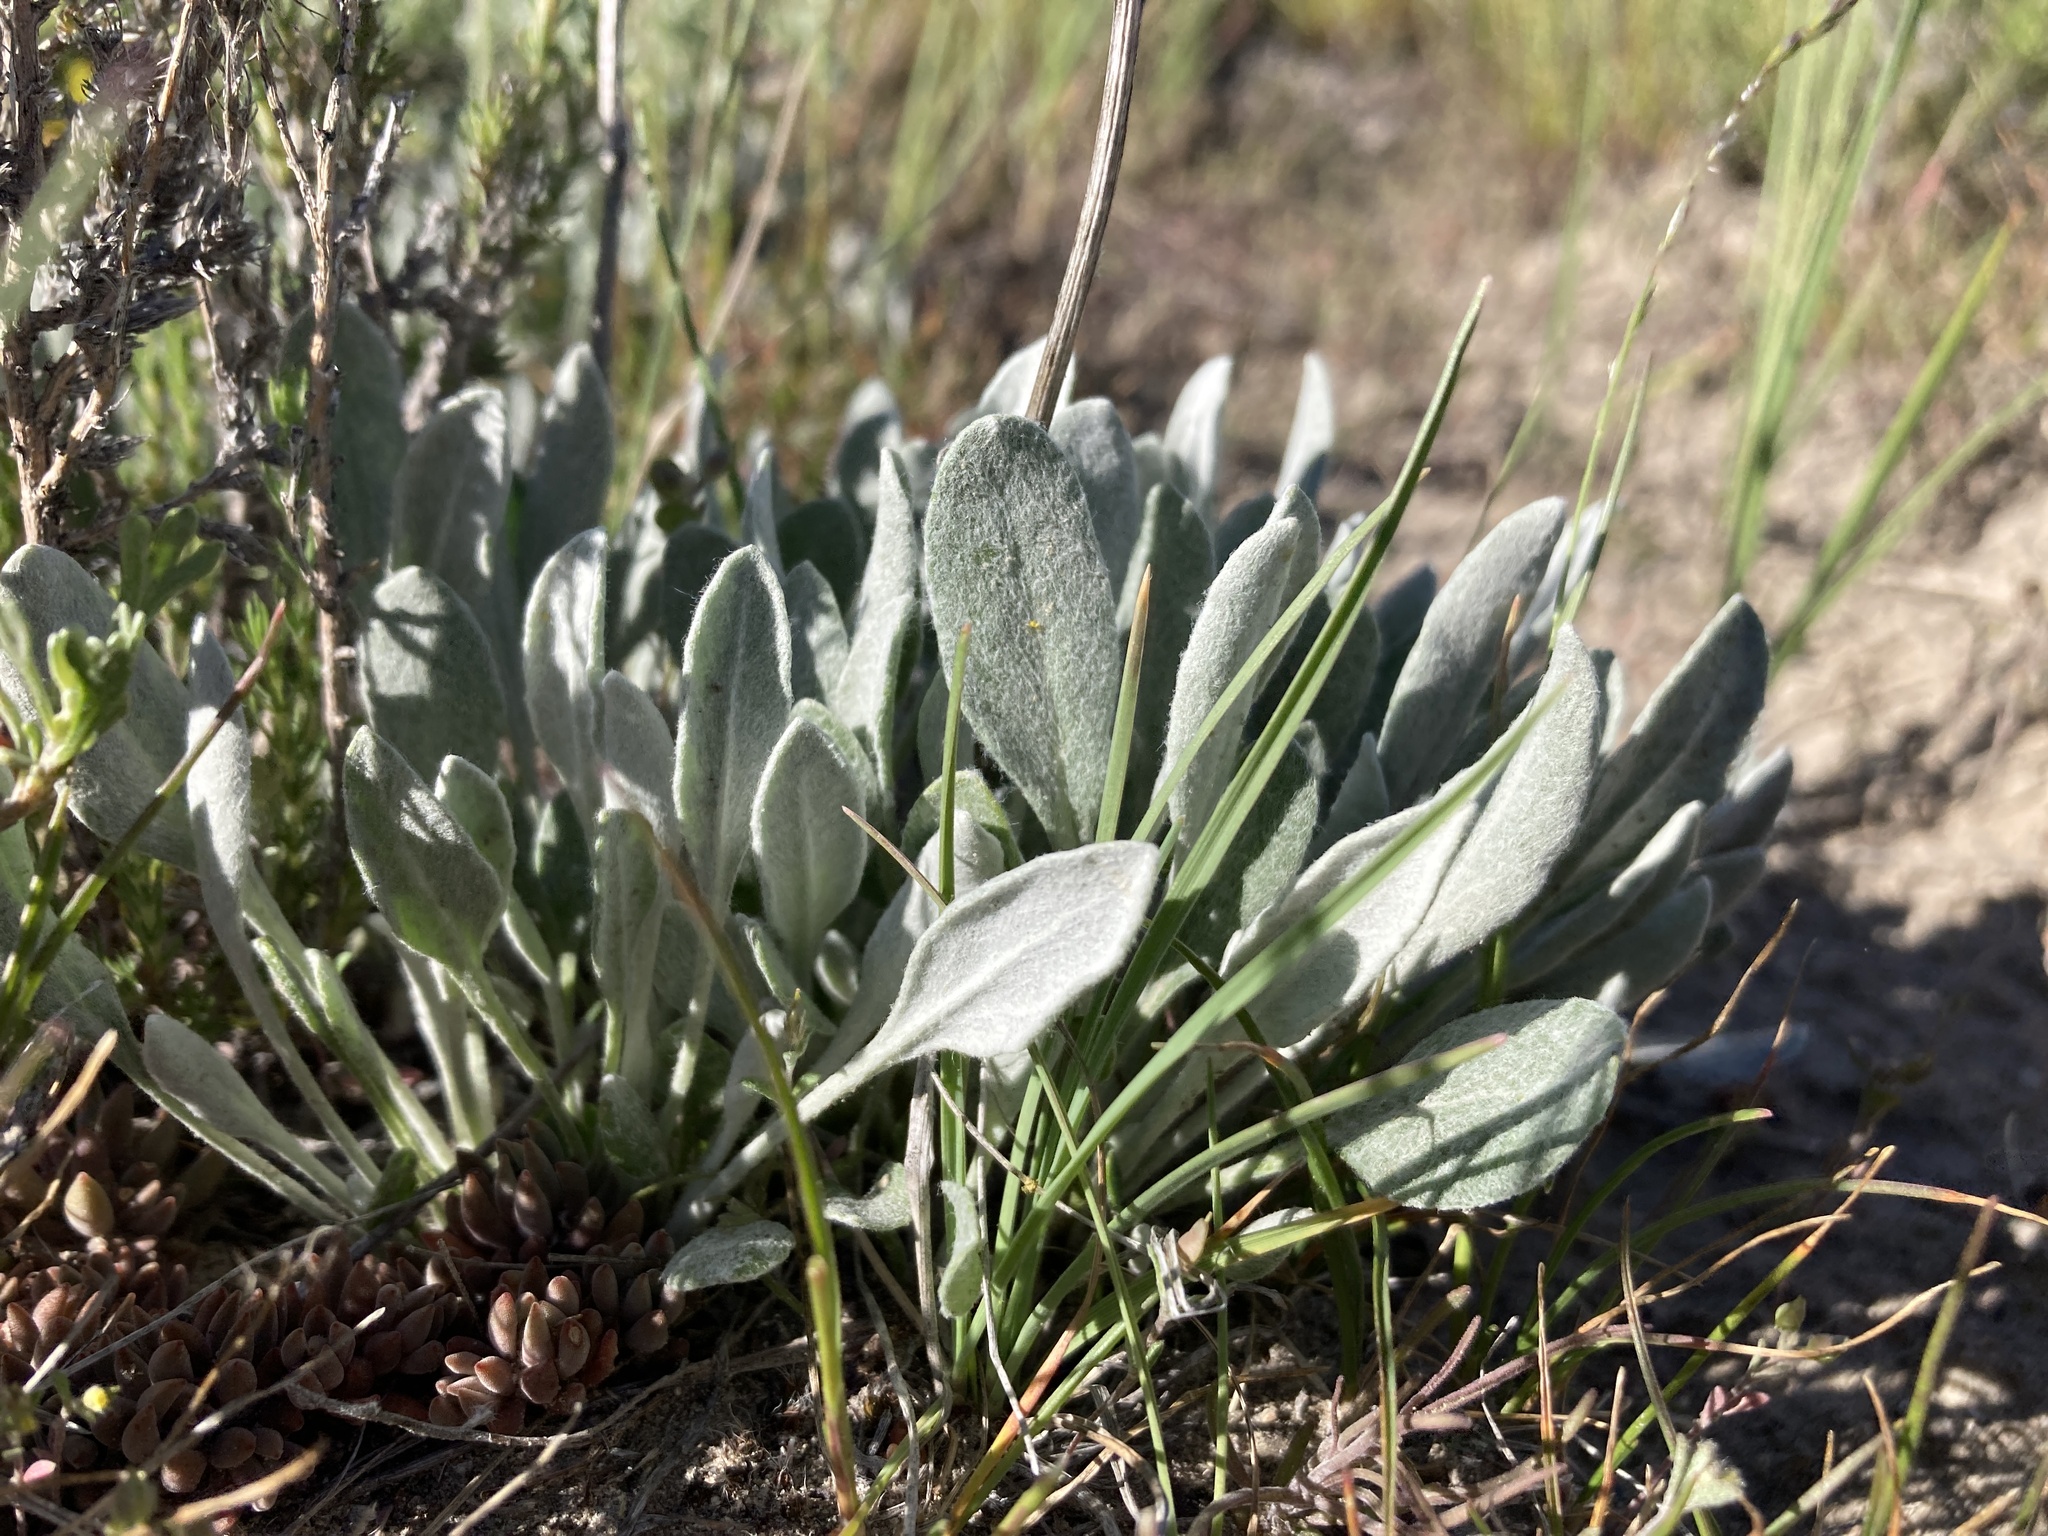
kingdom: Plantae
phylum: Tracheophyta
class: Magnoliopsida
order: Asterales
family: Asteraceae
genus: Packera
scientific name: Packera cana
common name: Woolly groundsel
